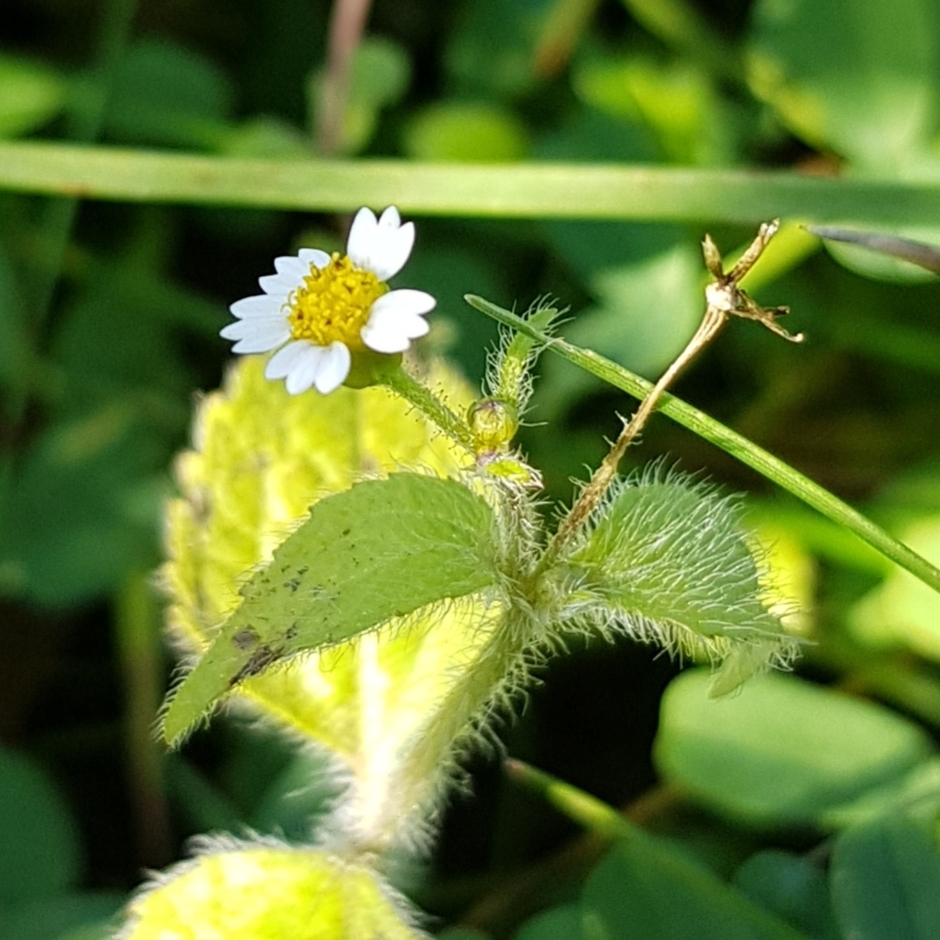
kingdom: Plantae
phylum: Tracheophyta
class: Magnoliopsida
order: Asterales
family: Asteraceae
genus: Galinsoga
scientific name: Galinsoga quadriradiata
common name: Shaggy soldier
